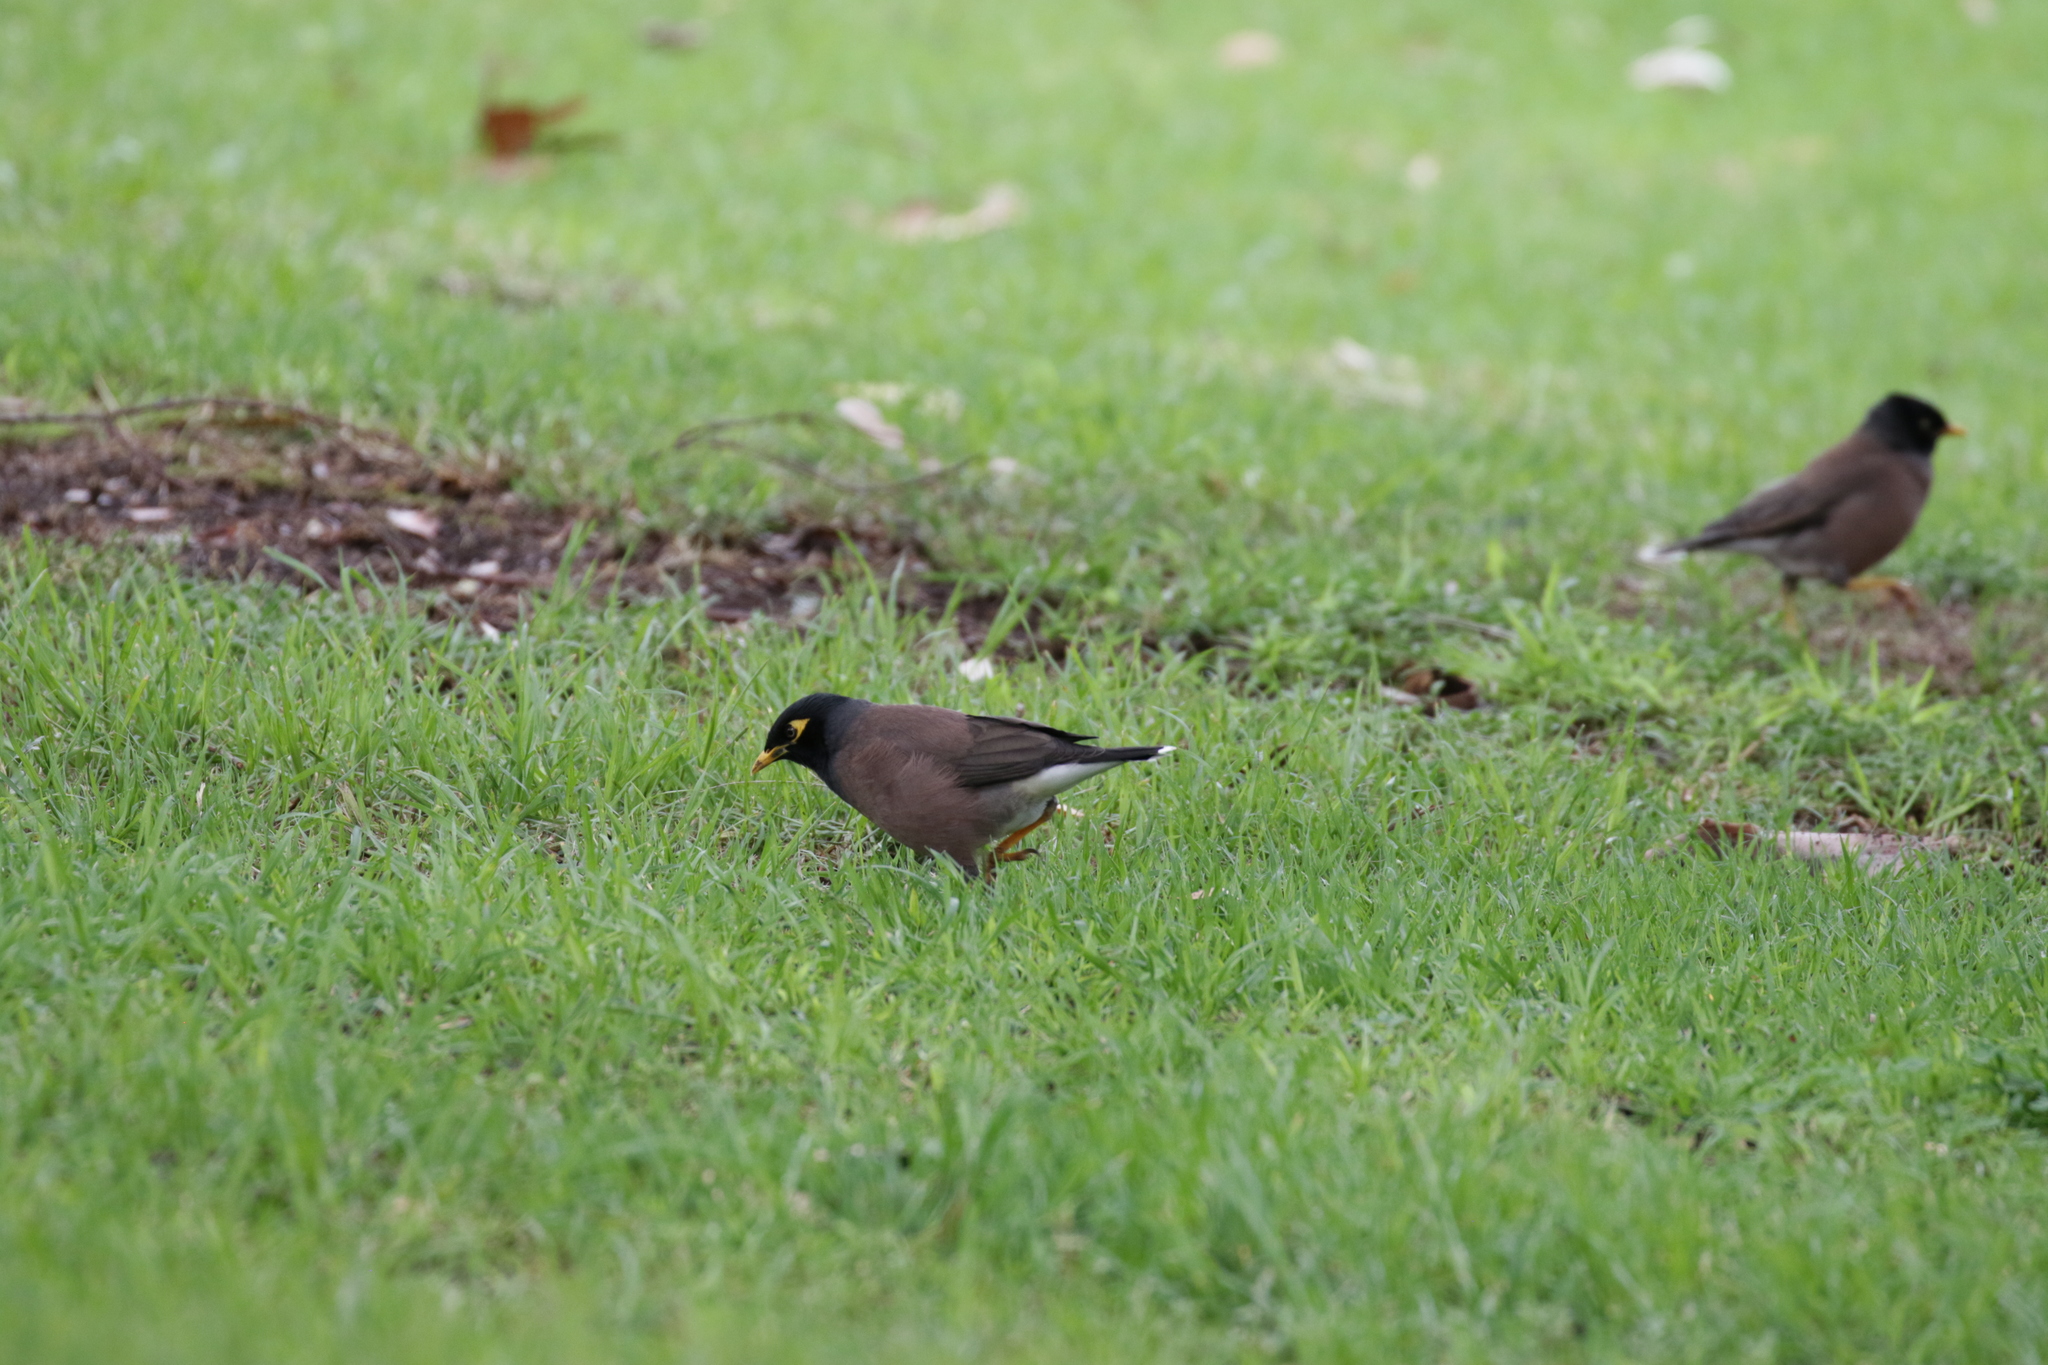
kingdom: Animalia
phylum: Chordata
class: Aves
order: Passeriformes
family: Sturnidae
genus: Acridotheres
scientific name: Acridotheres tristis
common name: Common myna
